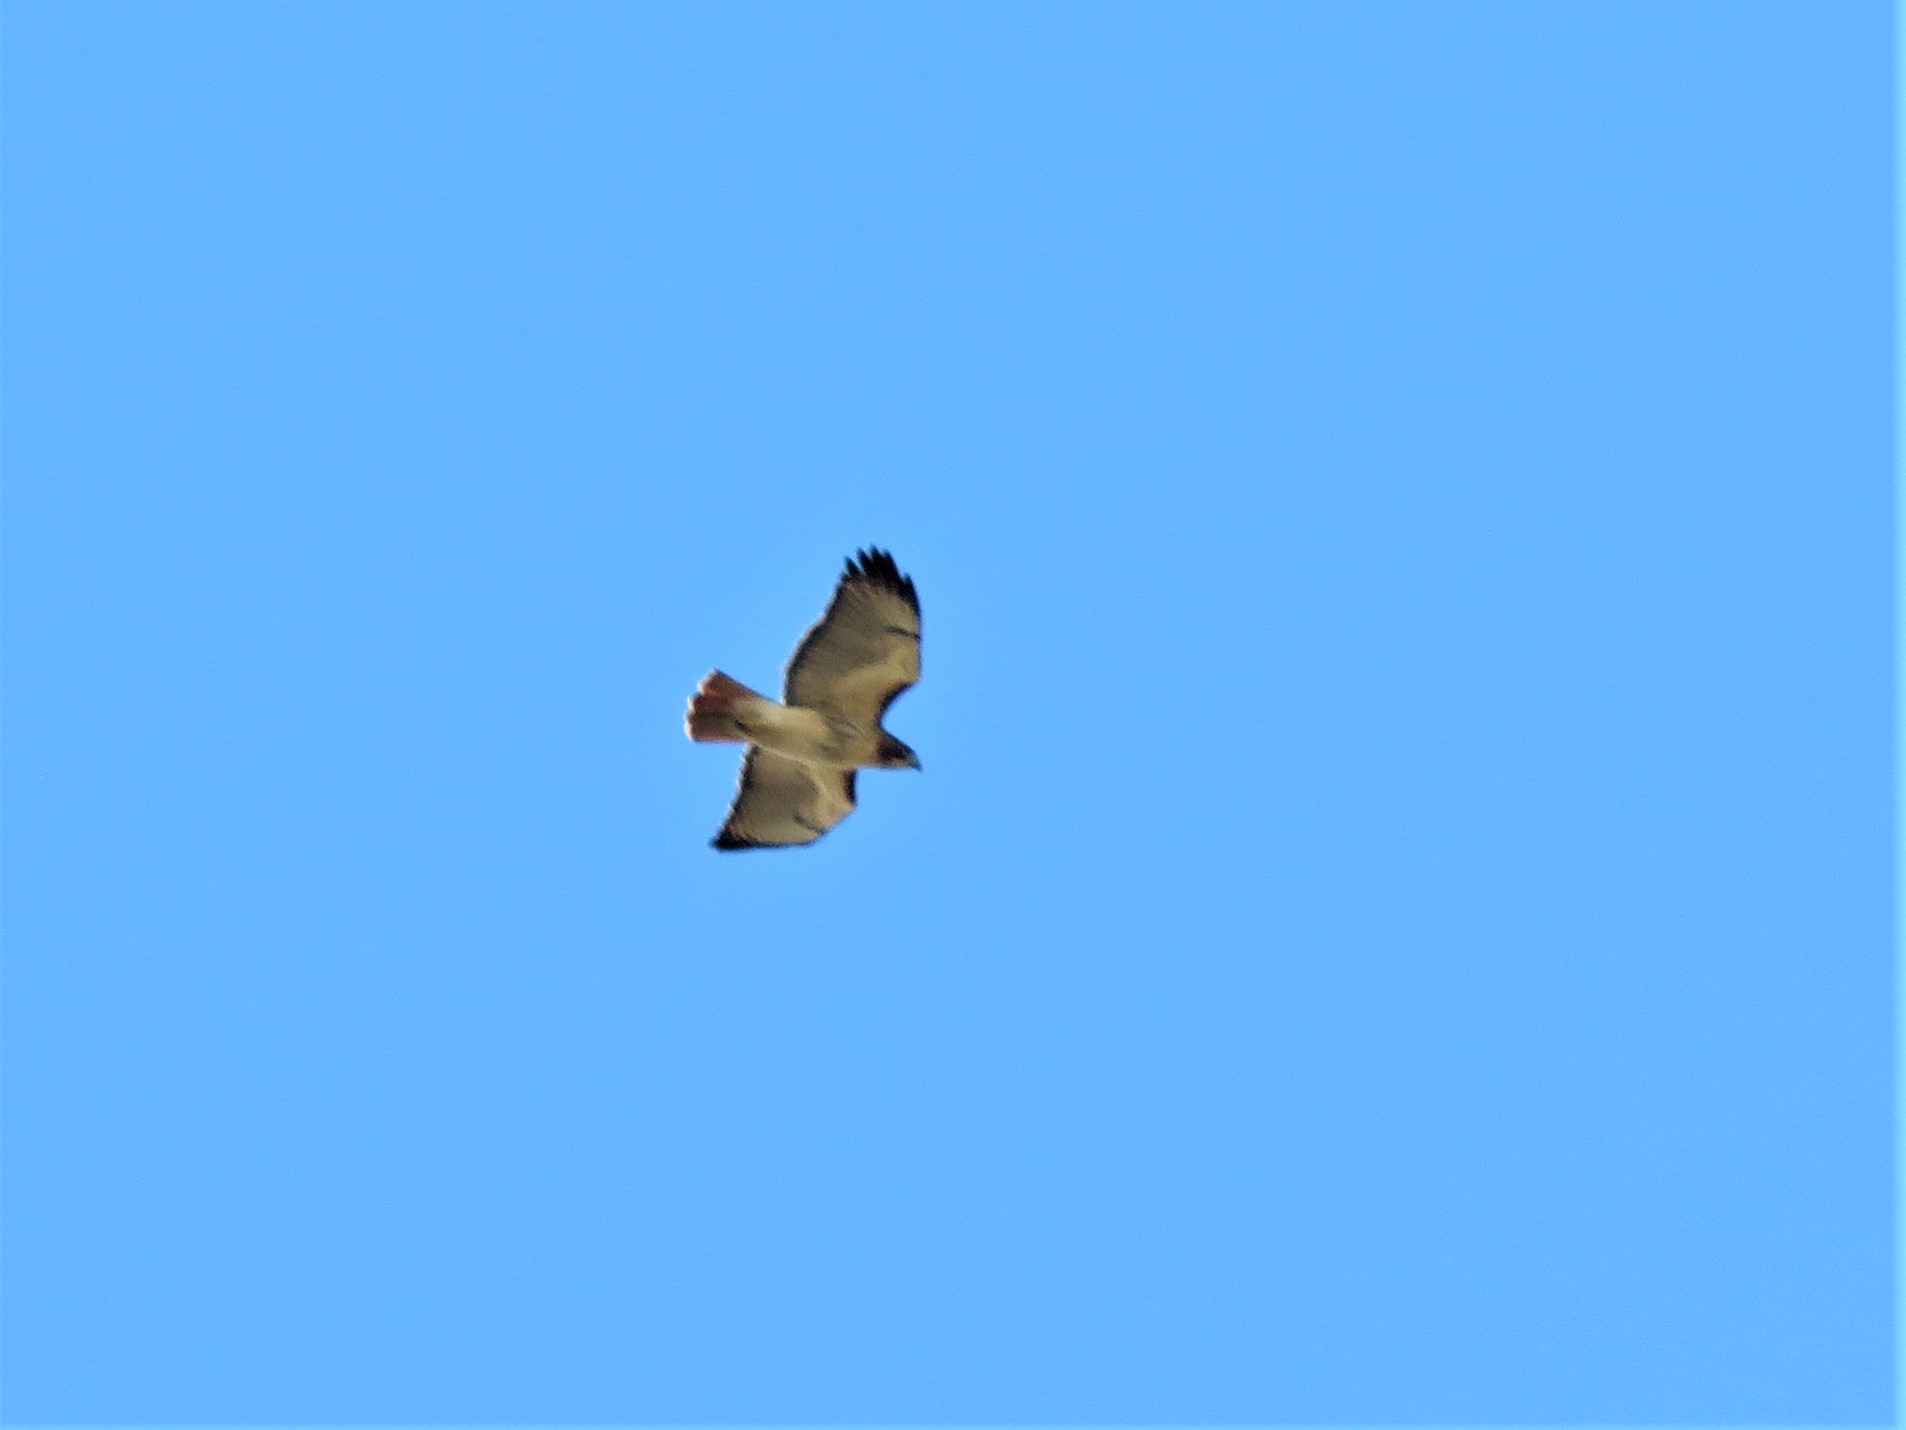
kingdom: Animalia
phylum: Chordata
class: Aves
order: Accipitriformes
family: Accipitridae
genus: Buteo
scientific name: Buteo jamaicensis
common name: Red-tailed hawk
